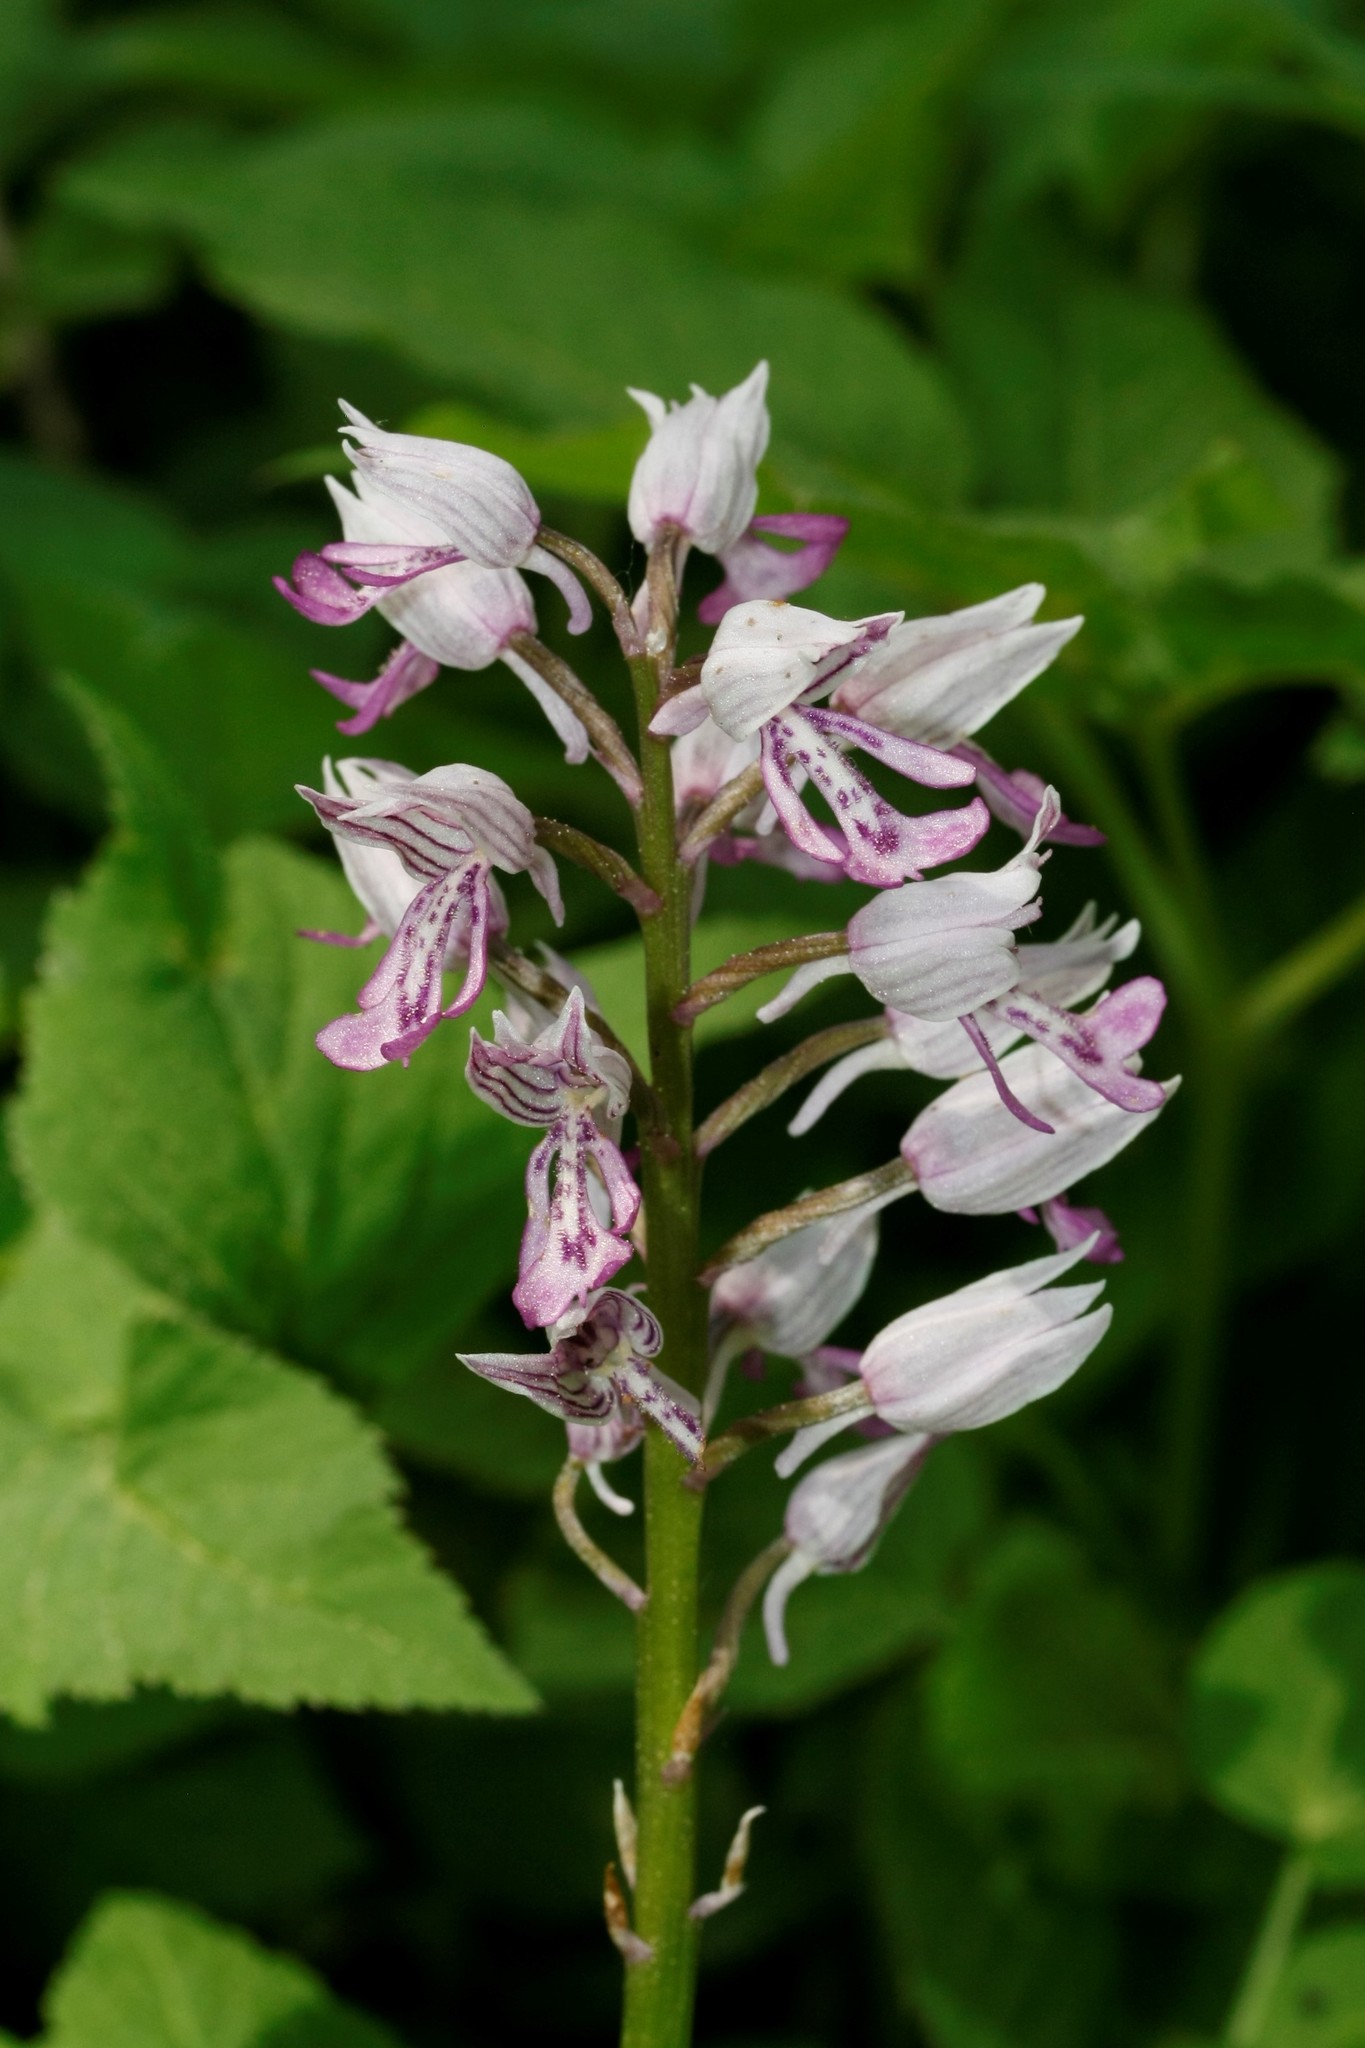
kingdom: Plantae
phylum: Tracheophyta
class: Liliopsida
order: Asparagales
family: Orchidaceae
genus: Orchis
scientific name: Orchis militaris
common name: Military orchid
